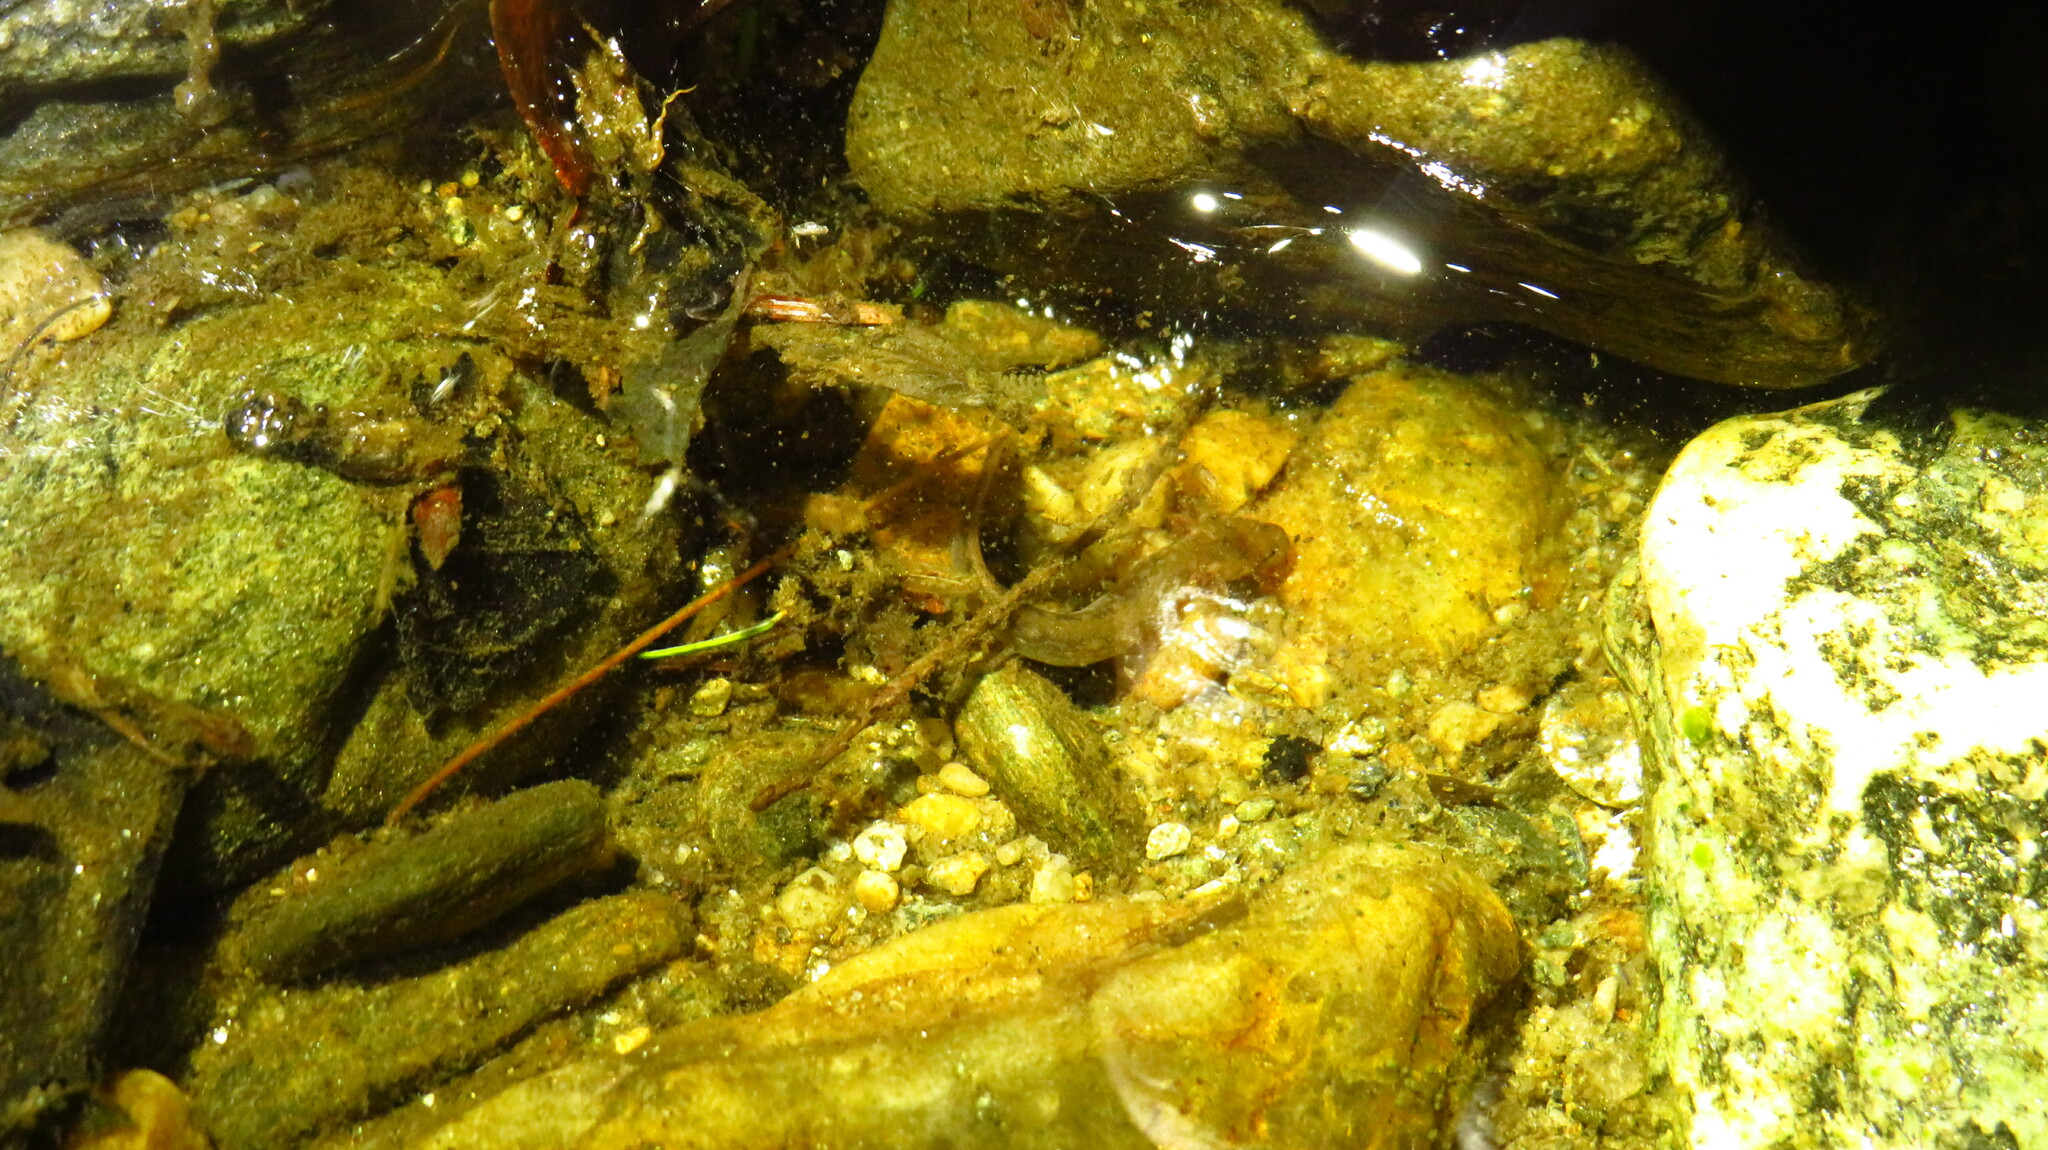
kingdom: Animalia
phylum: Chordata
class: Amphibia
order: Caudata
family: Plethodontidae
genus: Eurycea
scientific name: Eurycea bislineata
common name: Northern two-lined salamander
